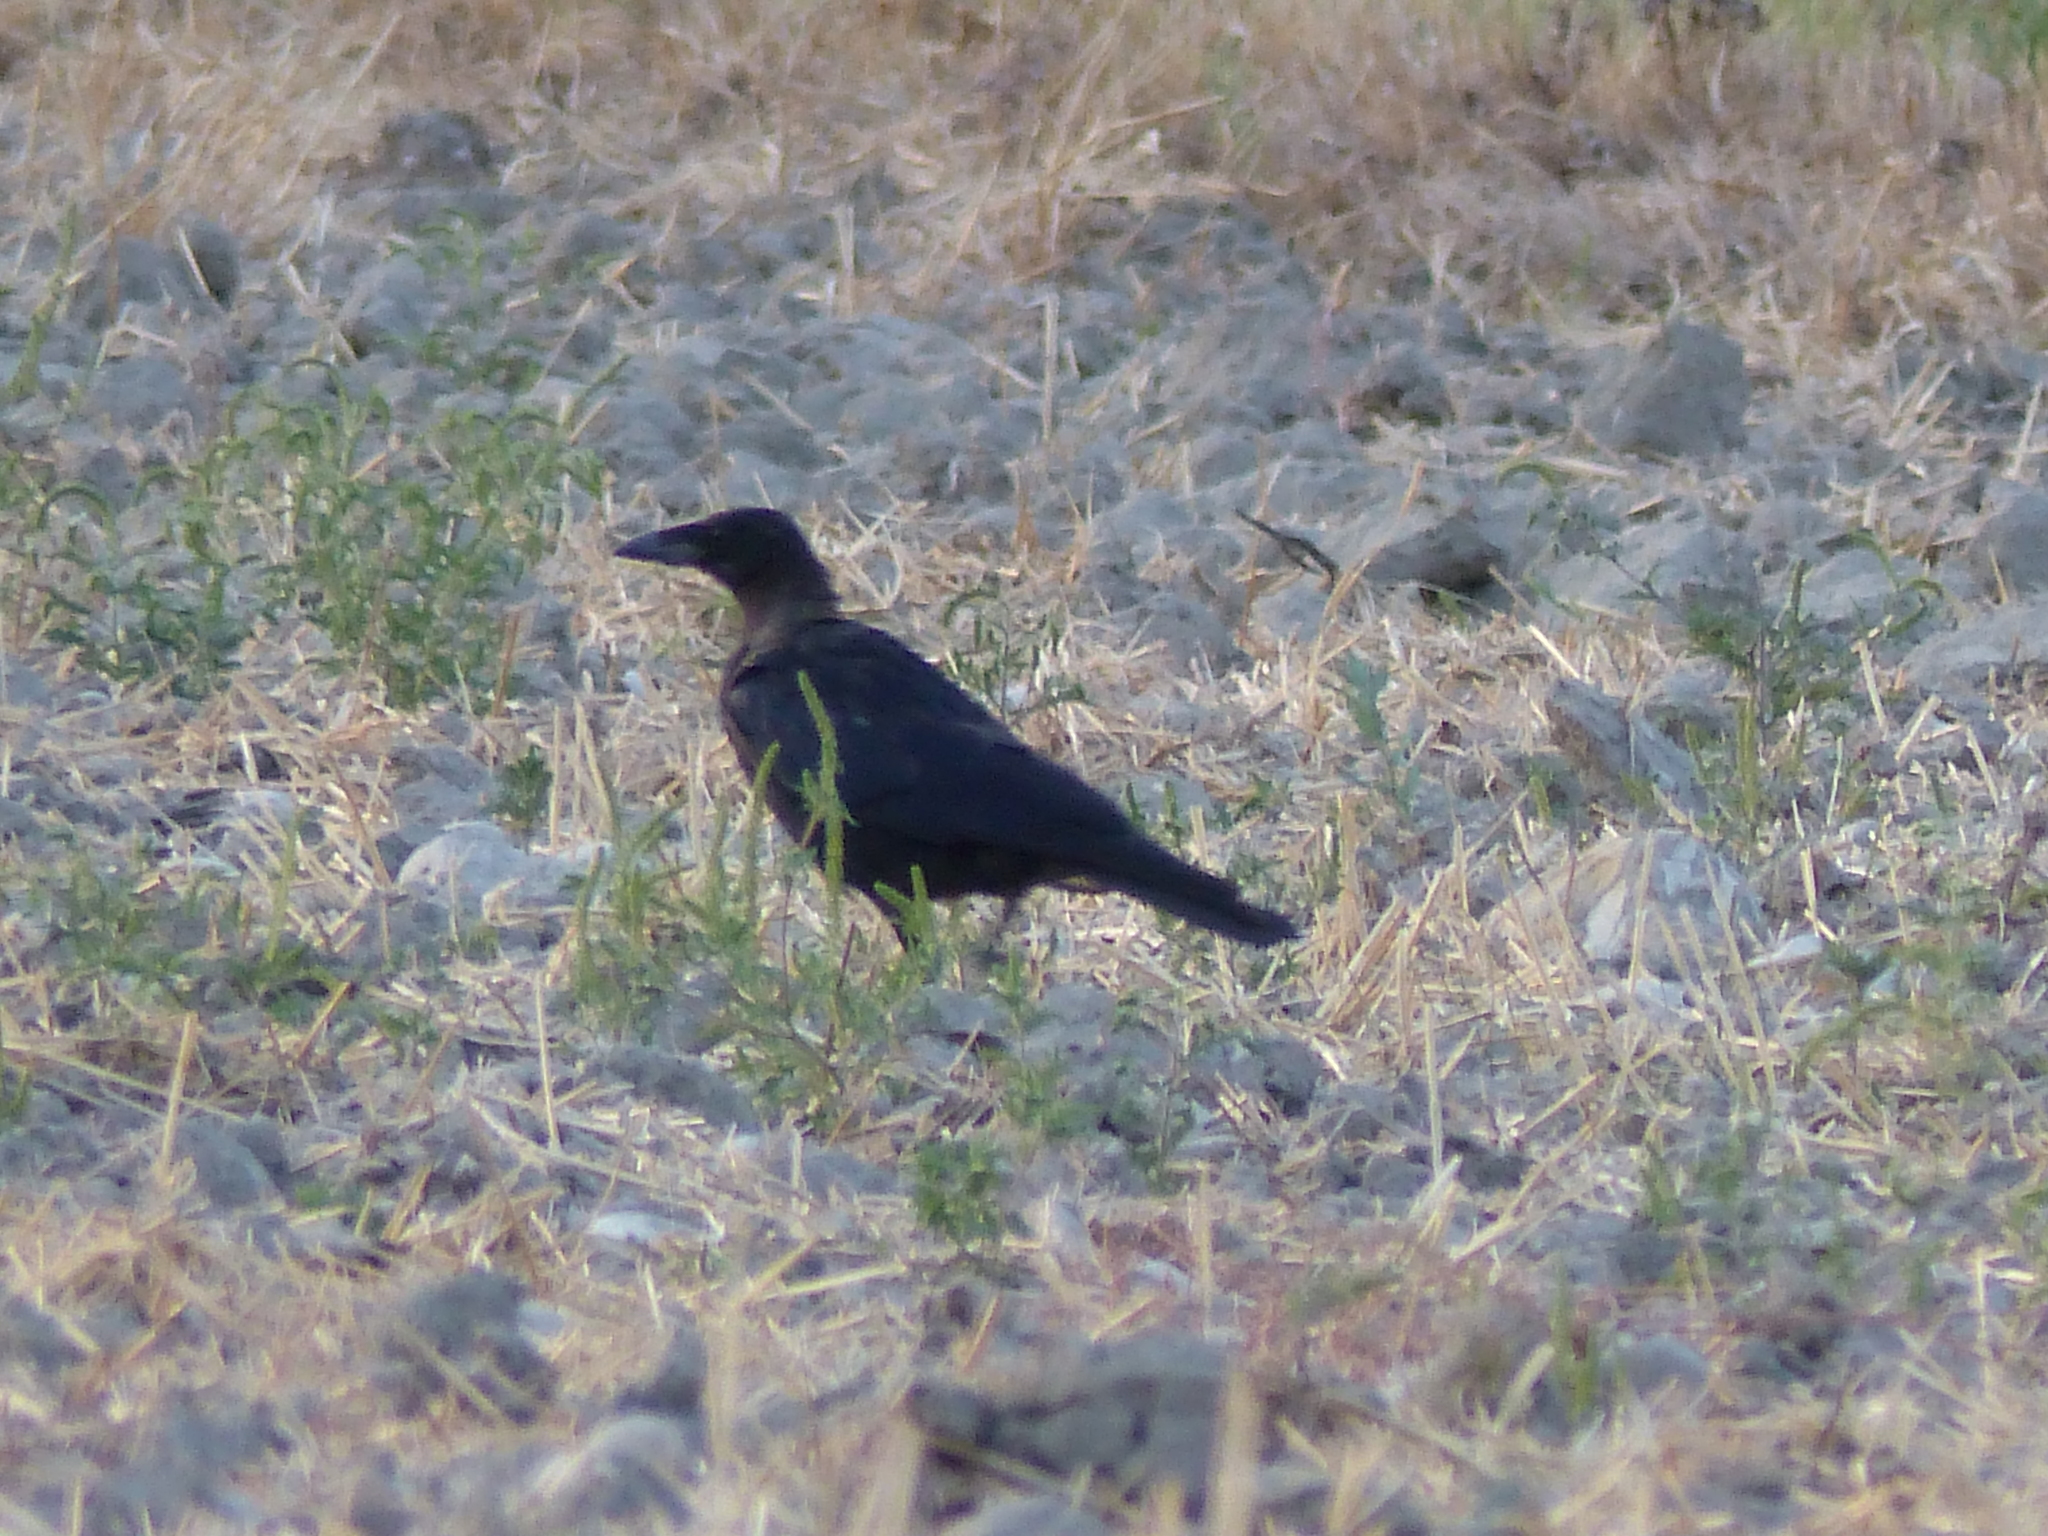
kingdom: Animalia
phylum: Chordata
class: Aves
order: Passeriformes
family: Corvidae
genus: Corvus
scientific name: Corvus corone
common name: Carrion crow
